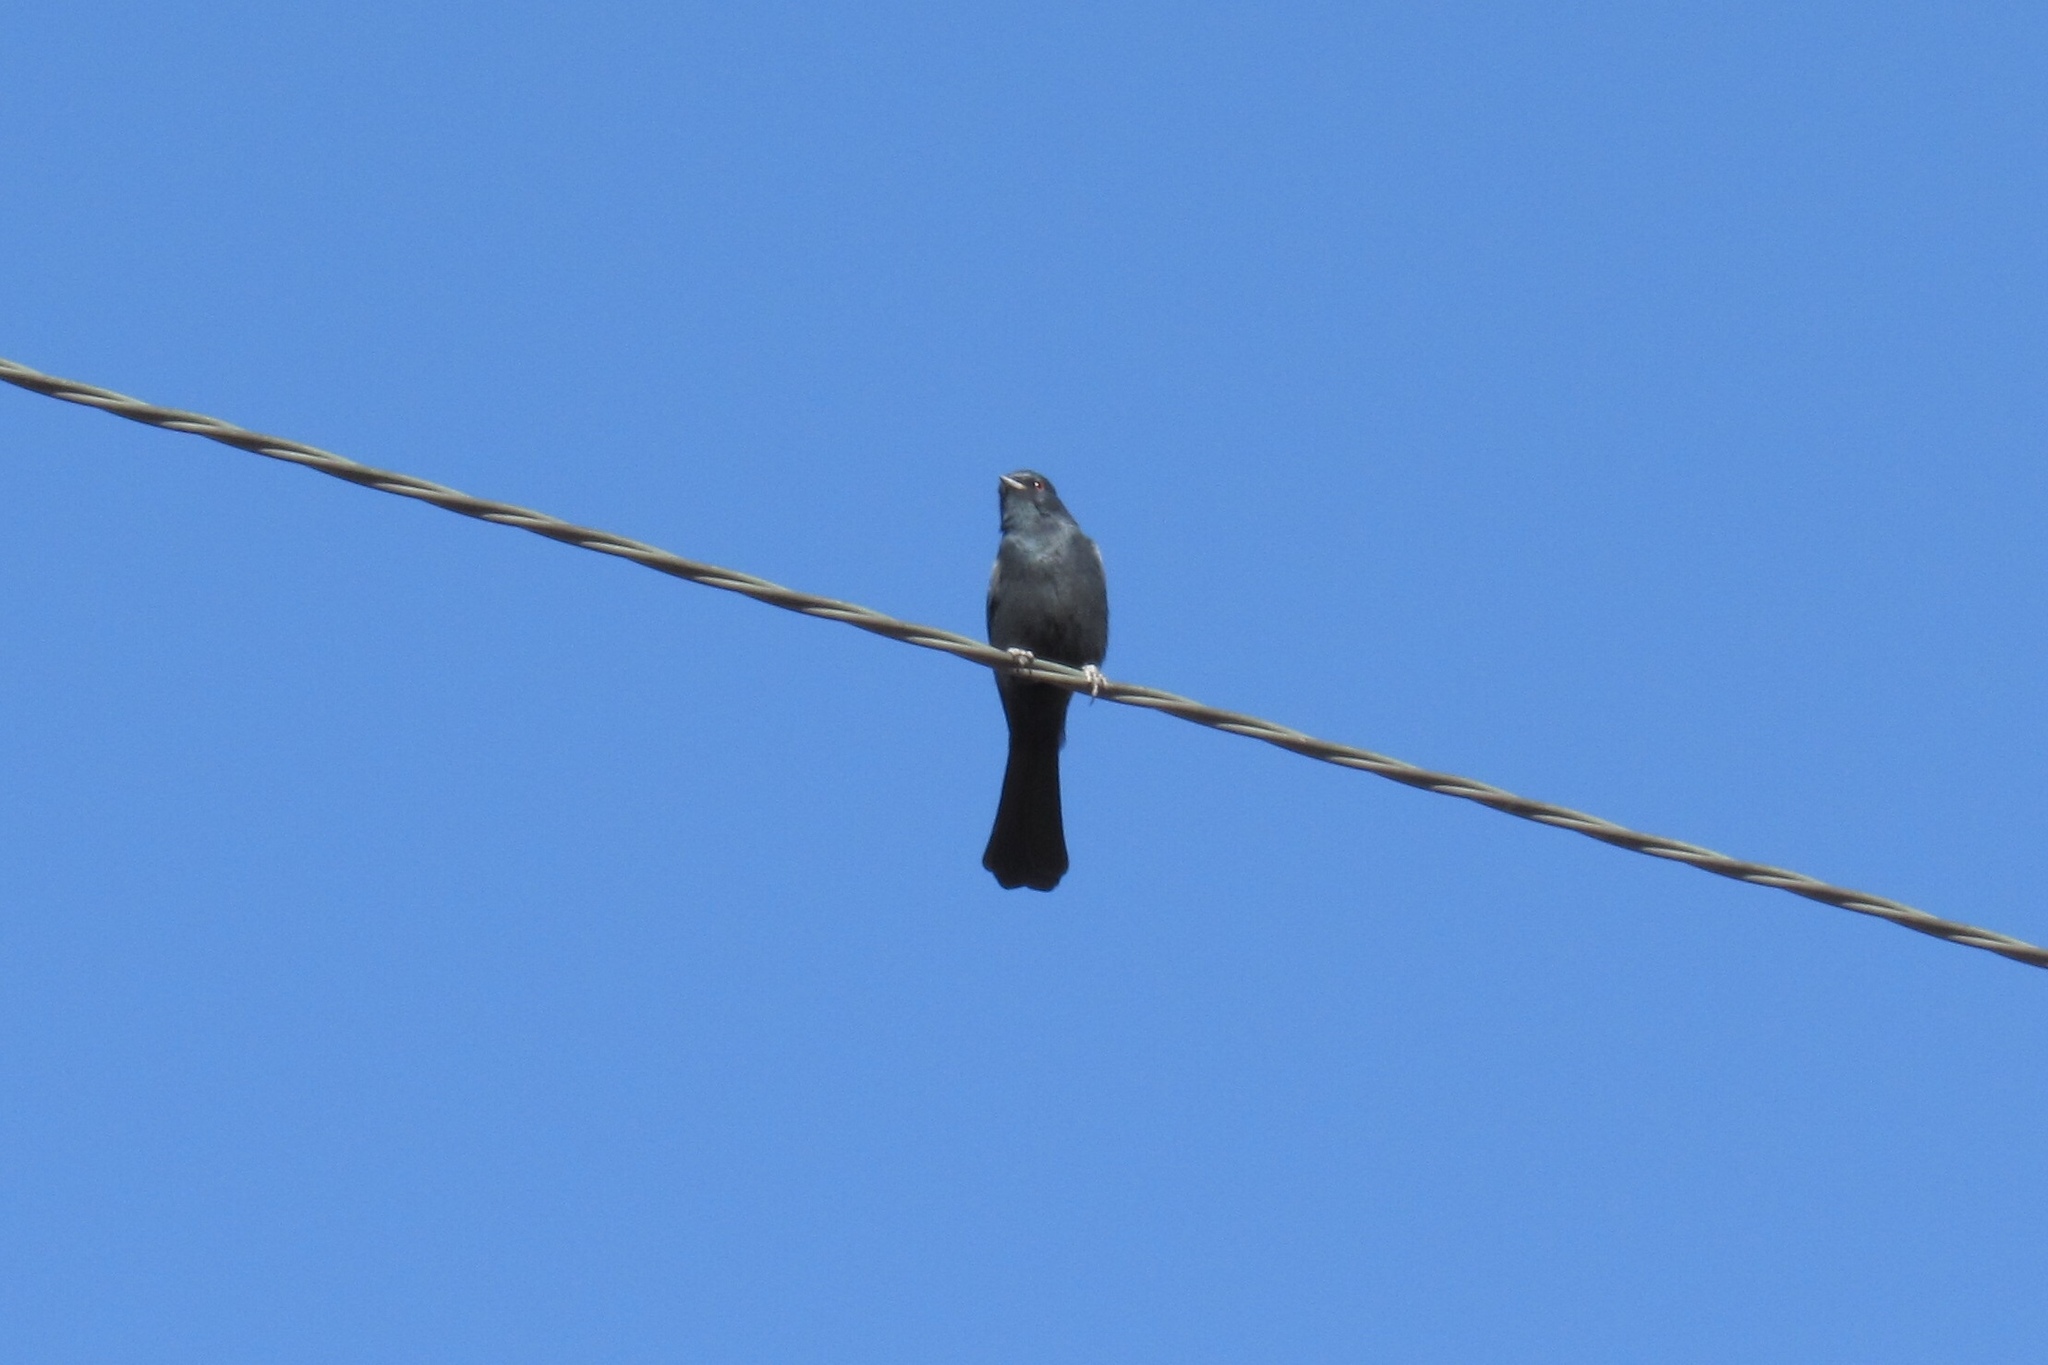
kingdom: Animalia
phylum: Chordata
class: Aves
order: Passeriformes
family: Ptilogonatidae
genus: Phainopepla
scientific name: Phainopepla nitens
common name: Phainopepla
